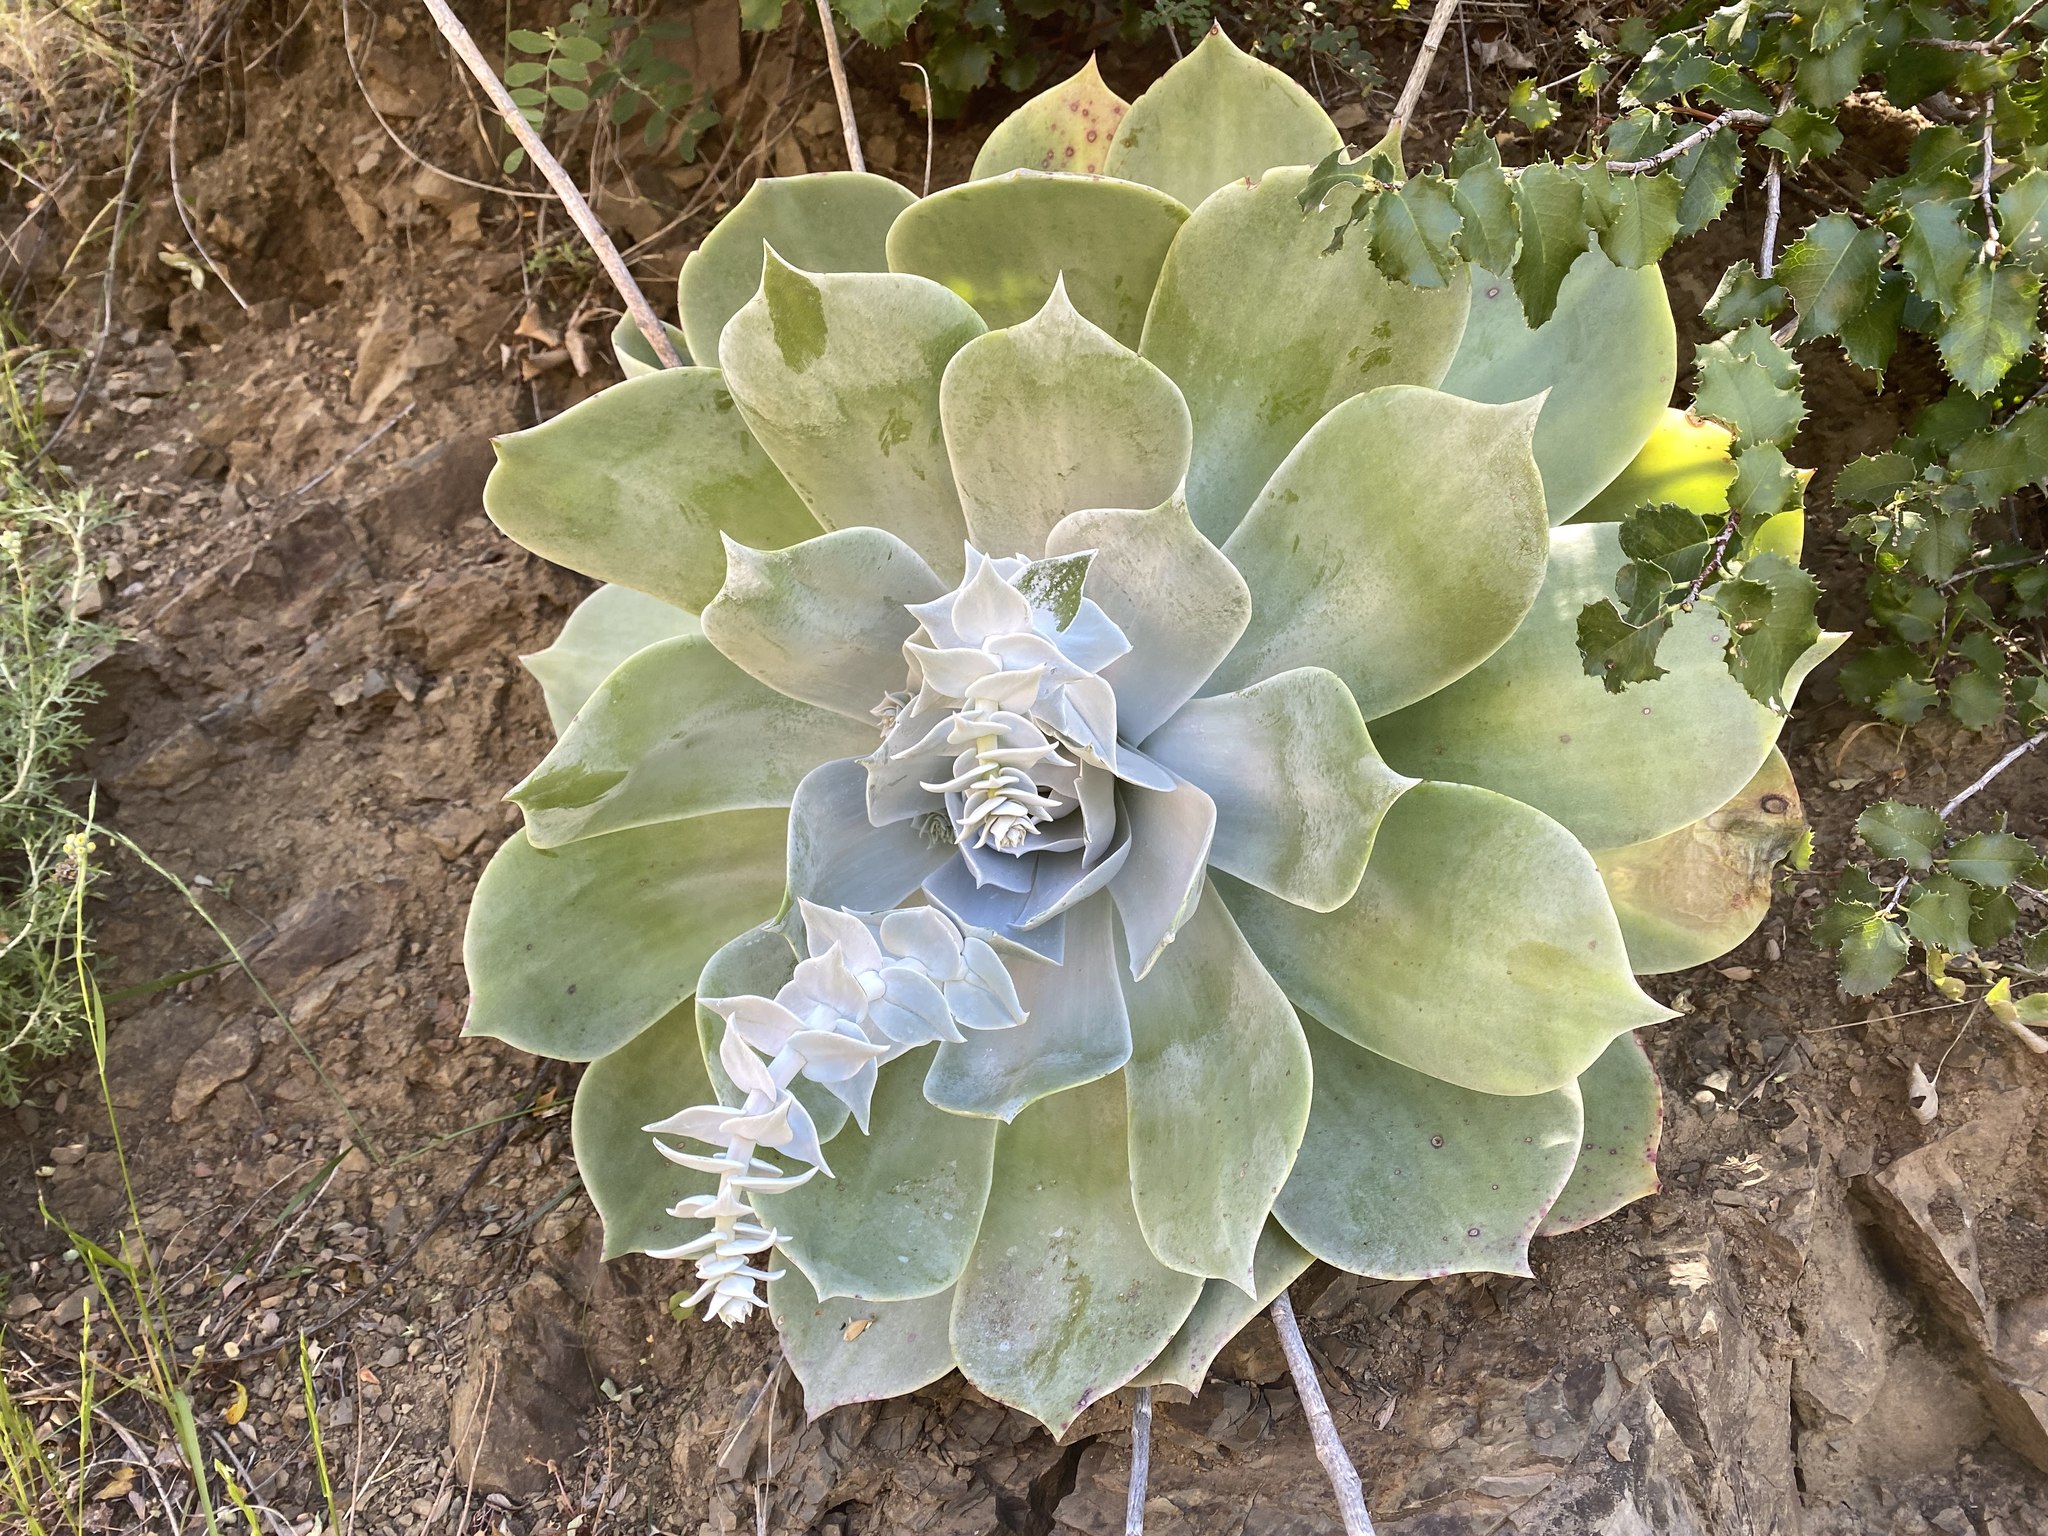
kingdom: Plantae
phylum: Tracheophyta
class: Magnoliopsida
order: Saxifragales
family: Crassulaceae
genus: Dudleya
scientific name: Dudleya pulverulenta
